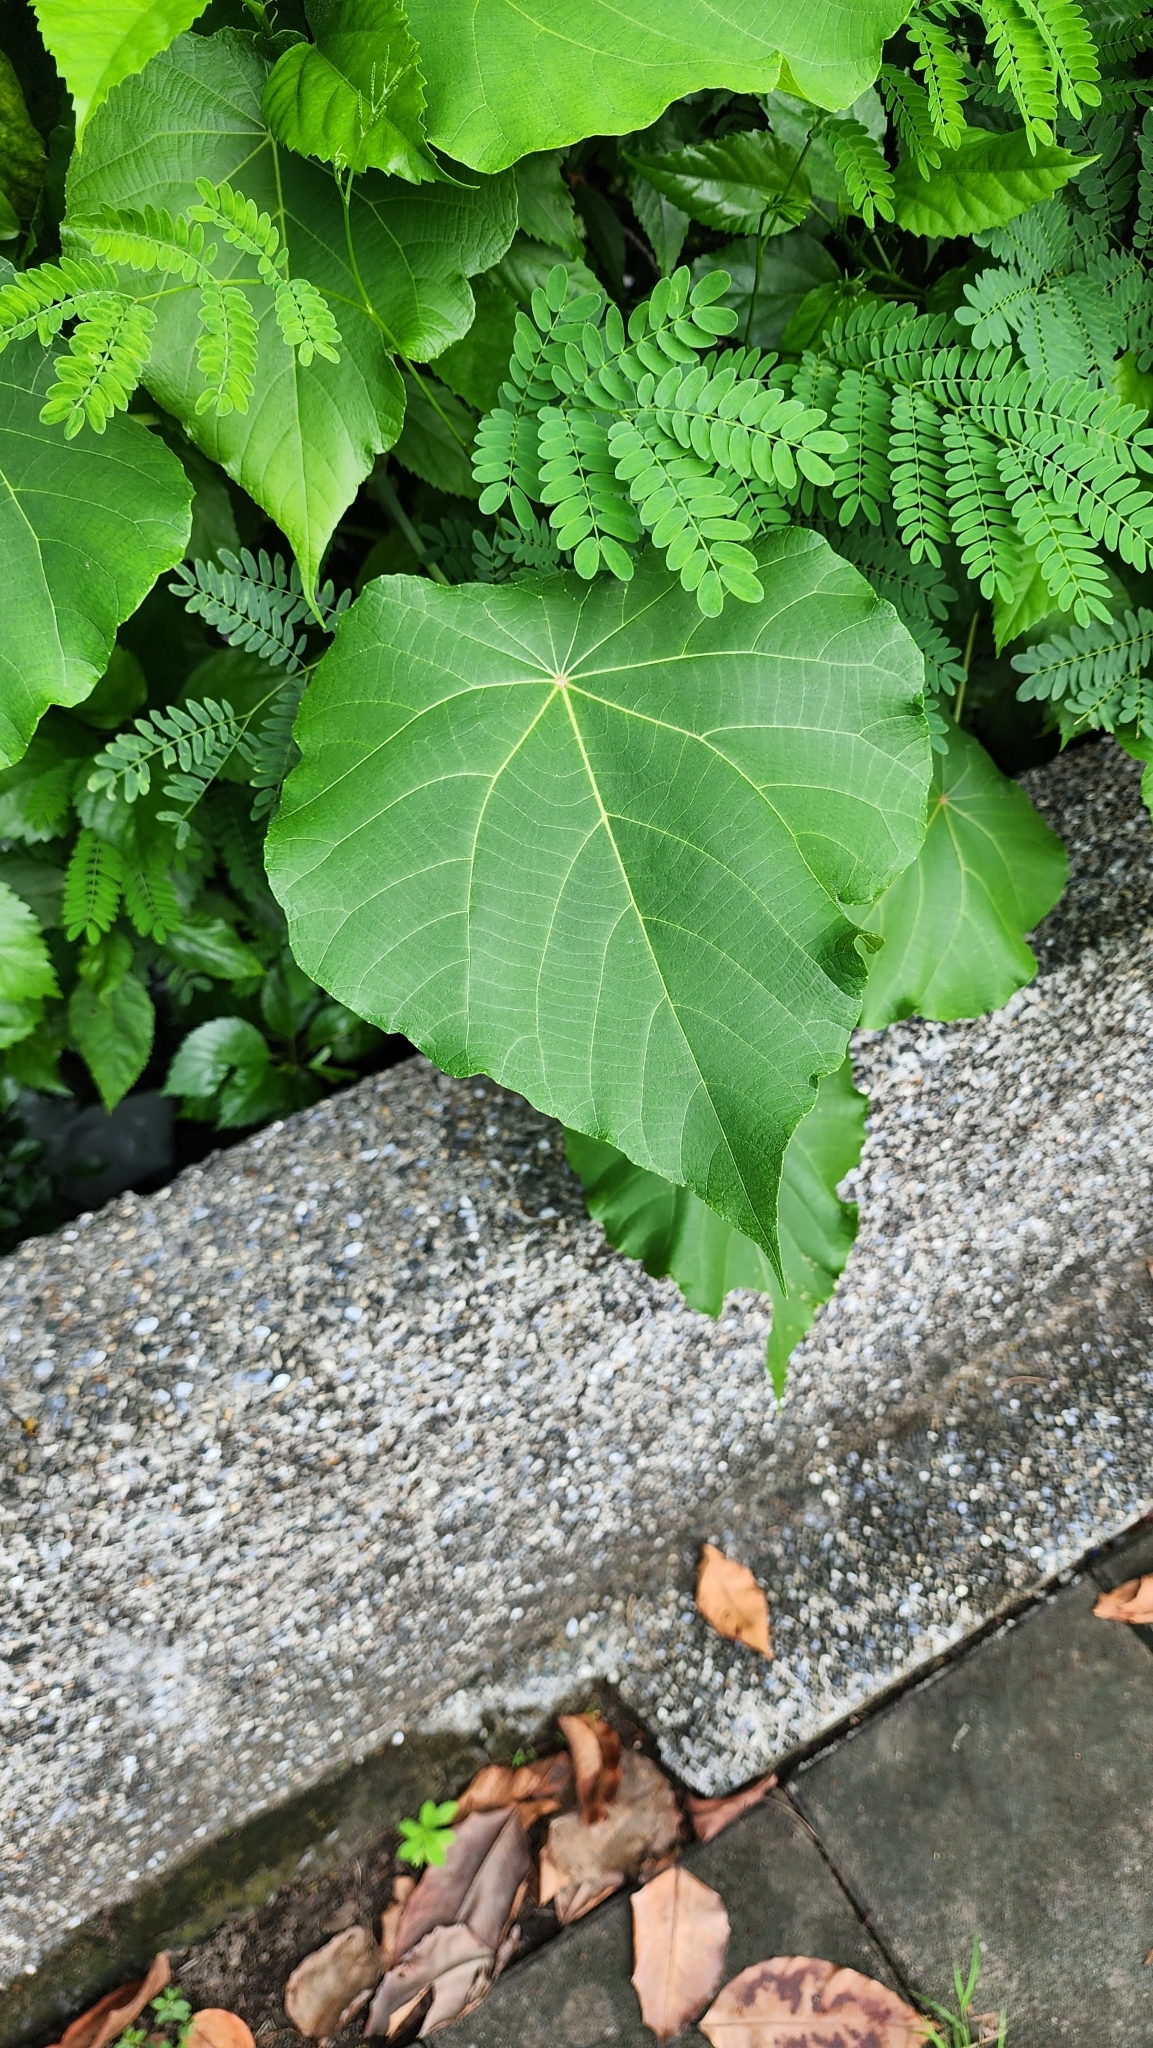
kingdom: Plantae
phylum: Tracheophyta
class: Magnoliopsida
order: Malpighiales
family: Euphorbiaceae
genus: Macaranga
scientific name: Macaranga tanarius
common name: Parasol leaf tree
